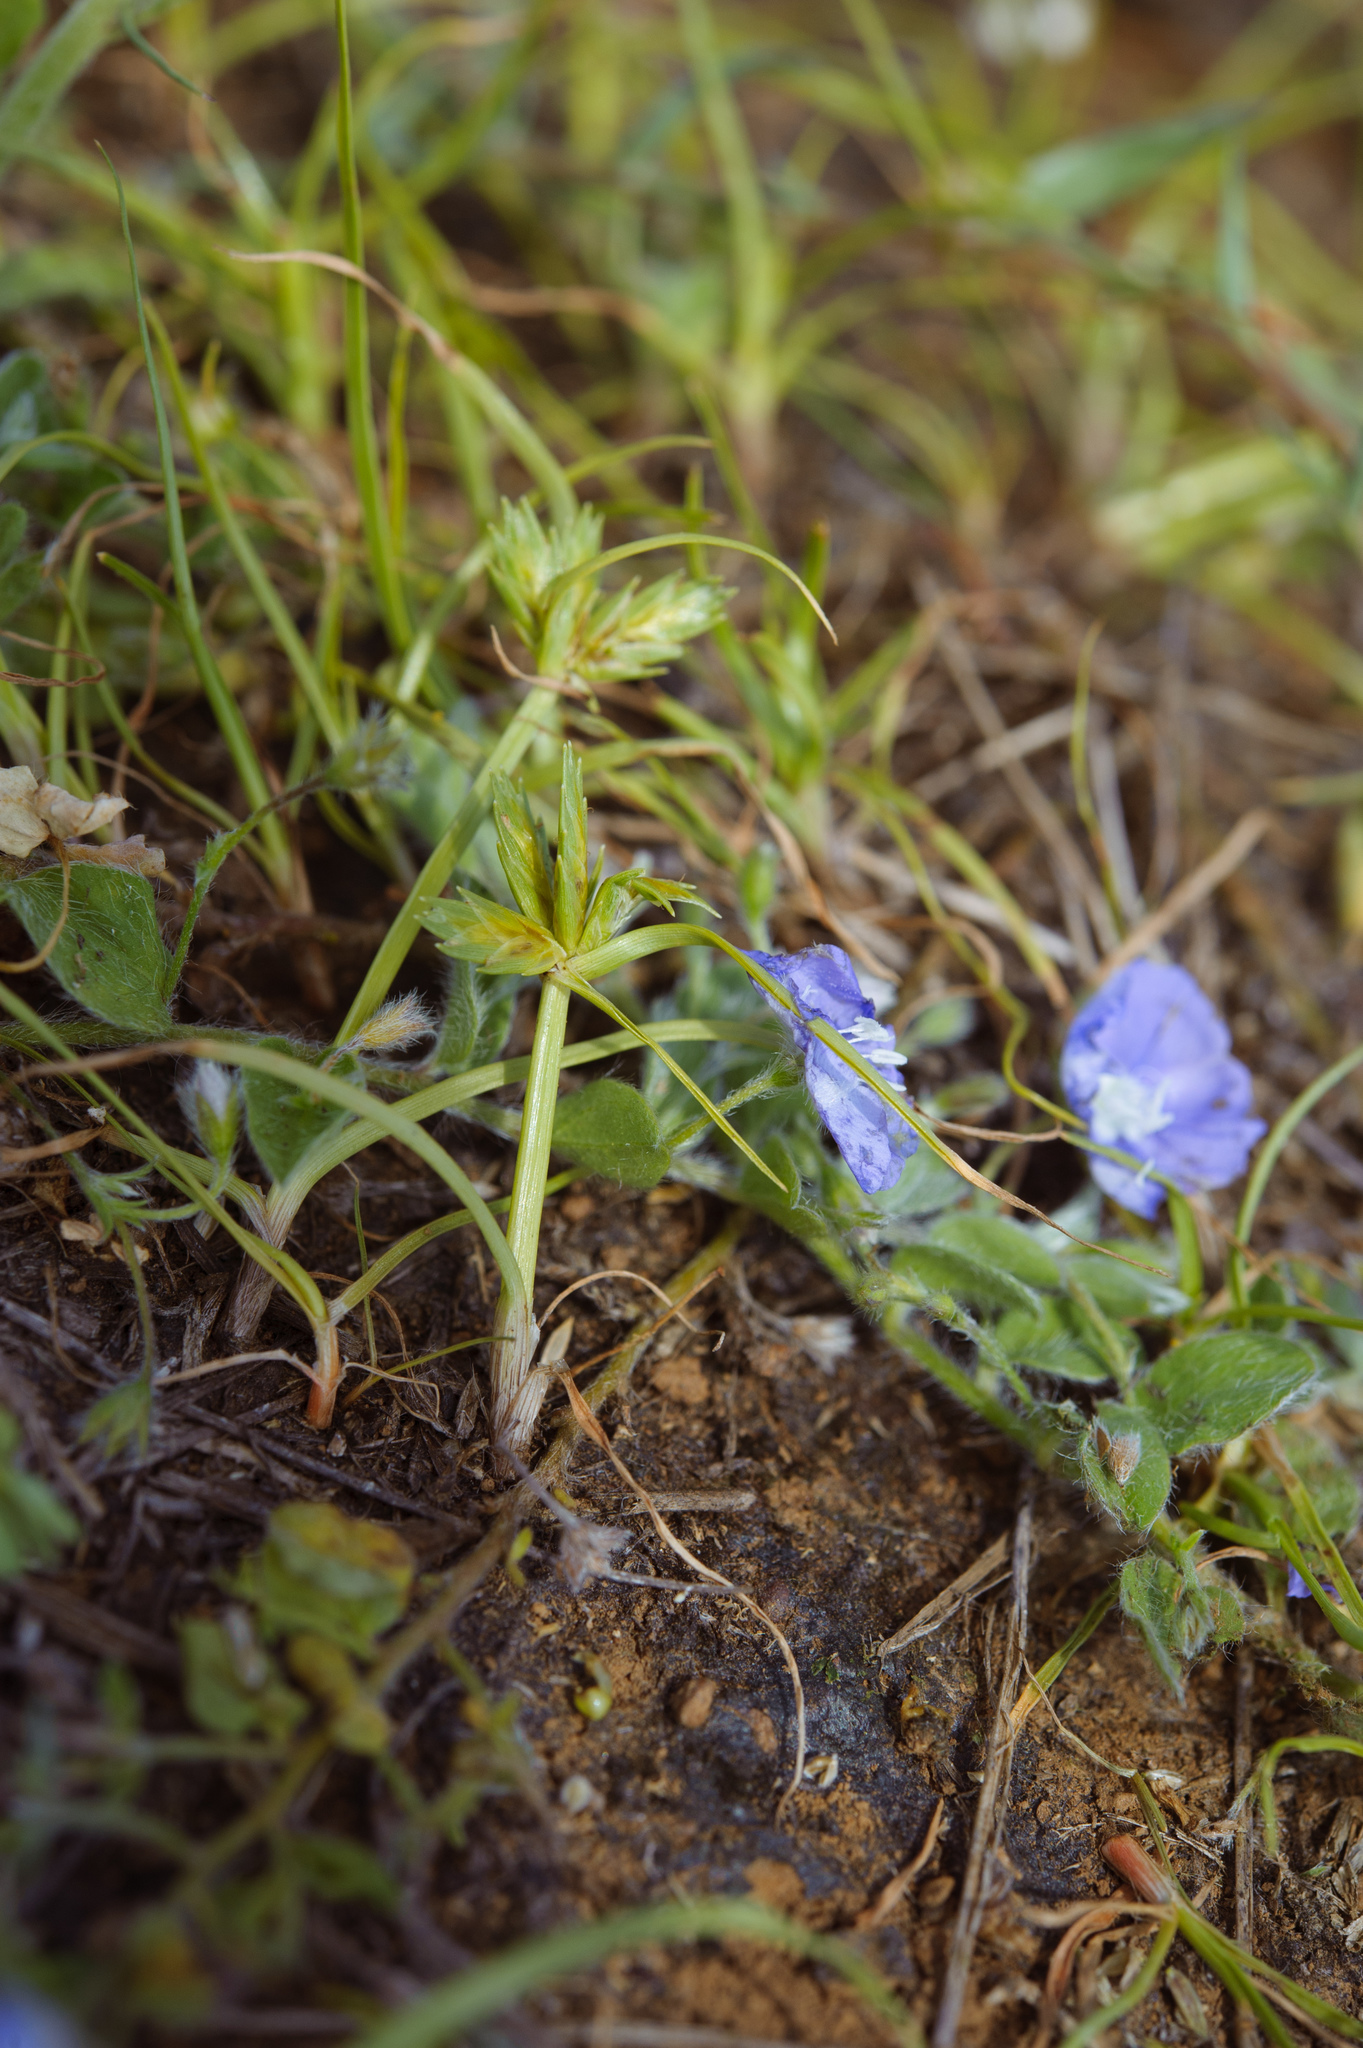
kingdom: Plantae
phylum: Tracheophyta
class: Liliopsida
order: Poales
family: Cyperaceae
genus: Cyperus
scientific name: Cyperus compressus
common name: Poorland flatsedge
